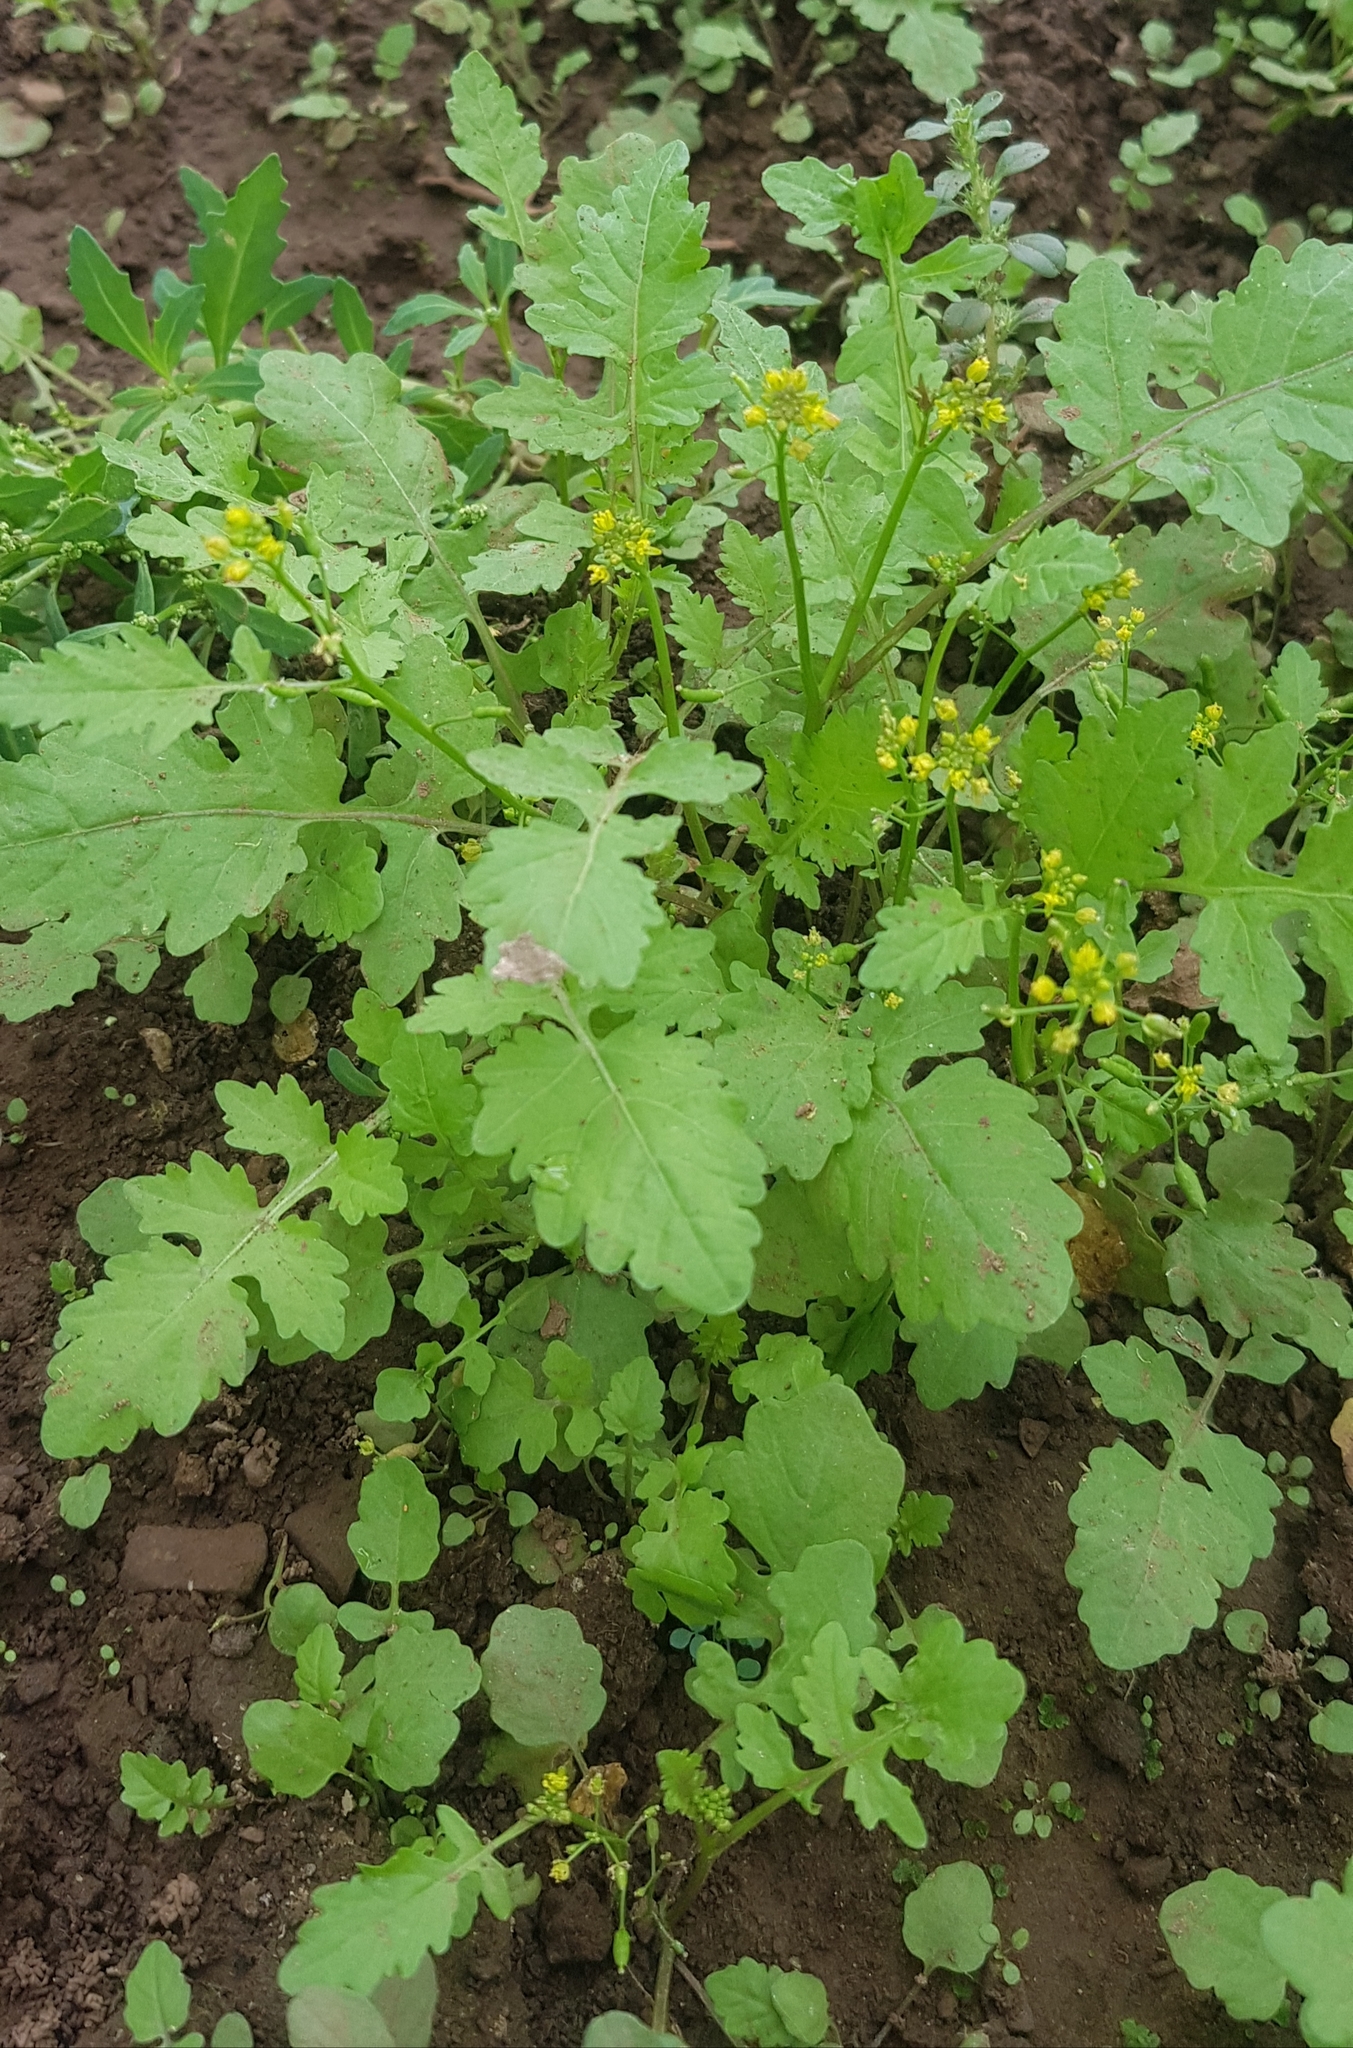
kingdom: Plantae
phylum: Tracheophyta
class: Magnoliopsida
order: Brassicales
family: Brassicaceae
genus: Rorippa
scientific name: Rorippa palustris
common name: Marsh yellow-cress
